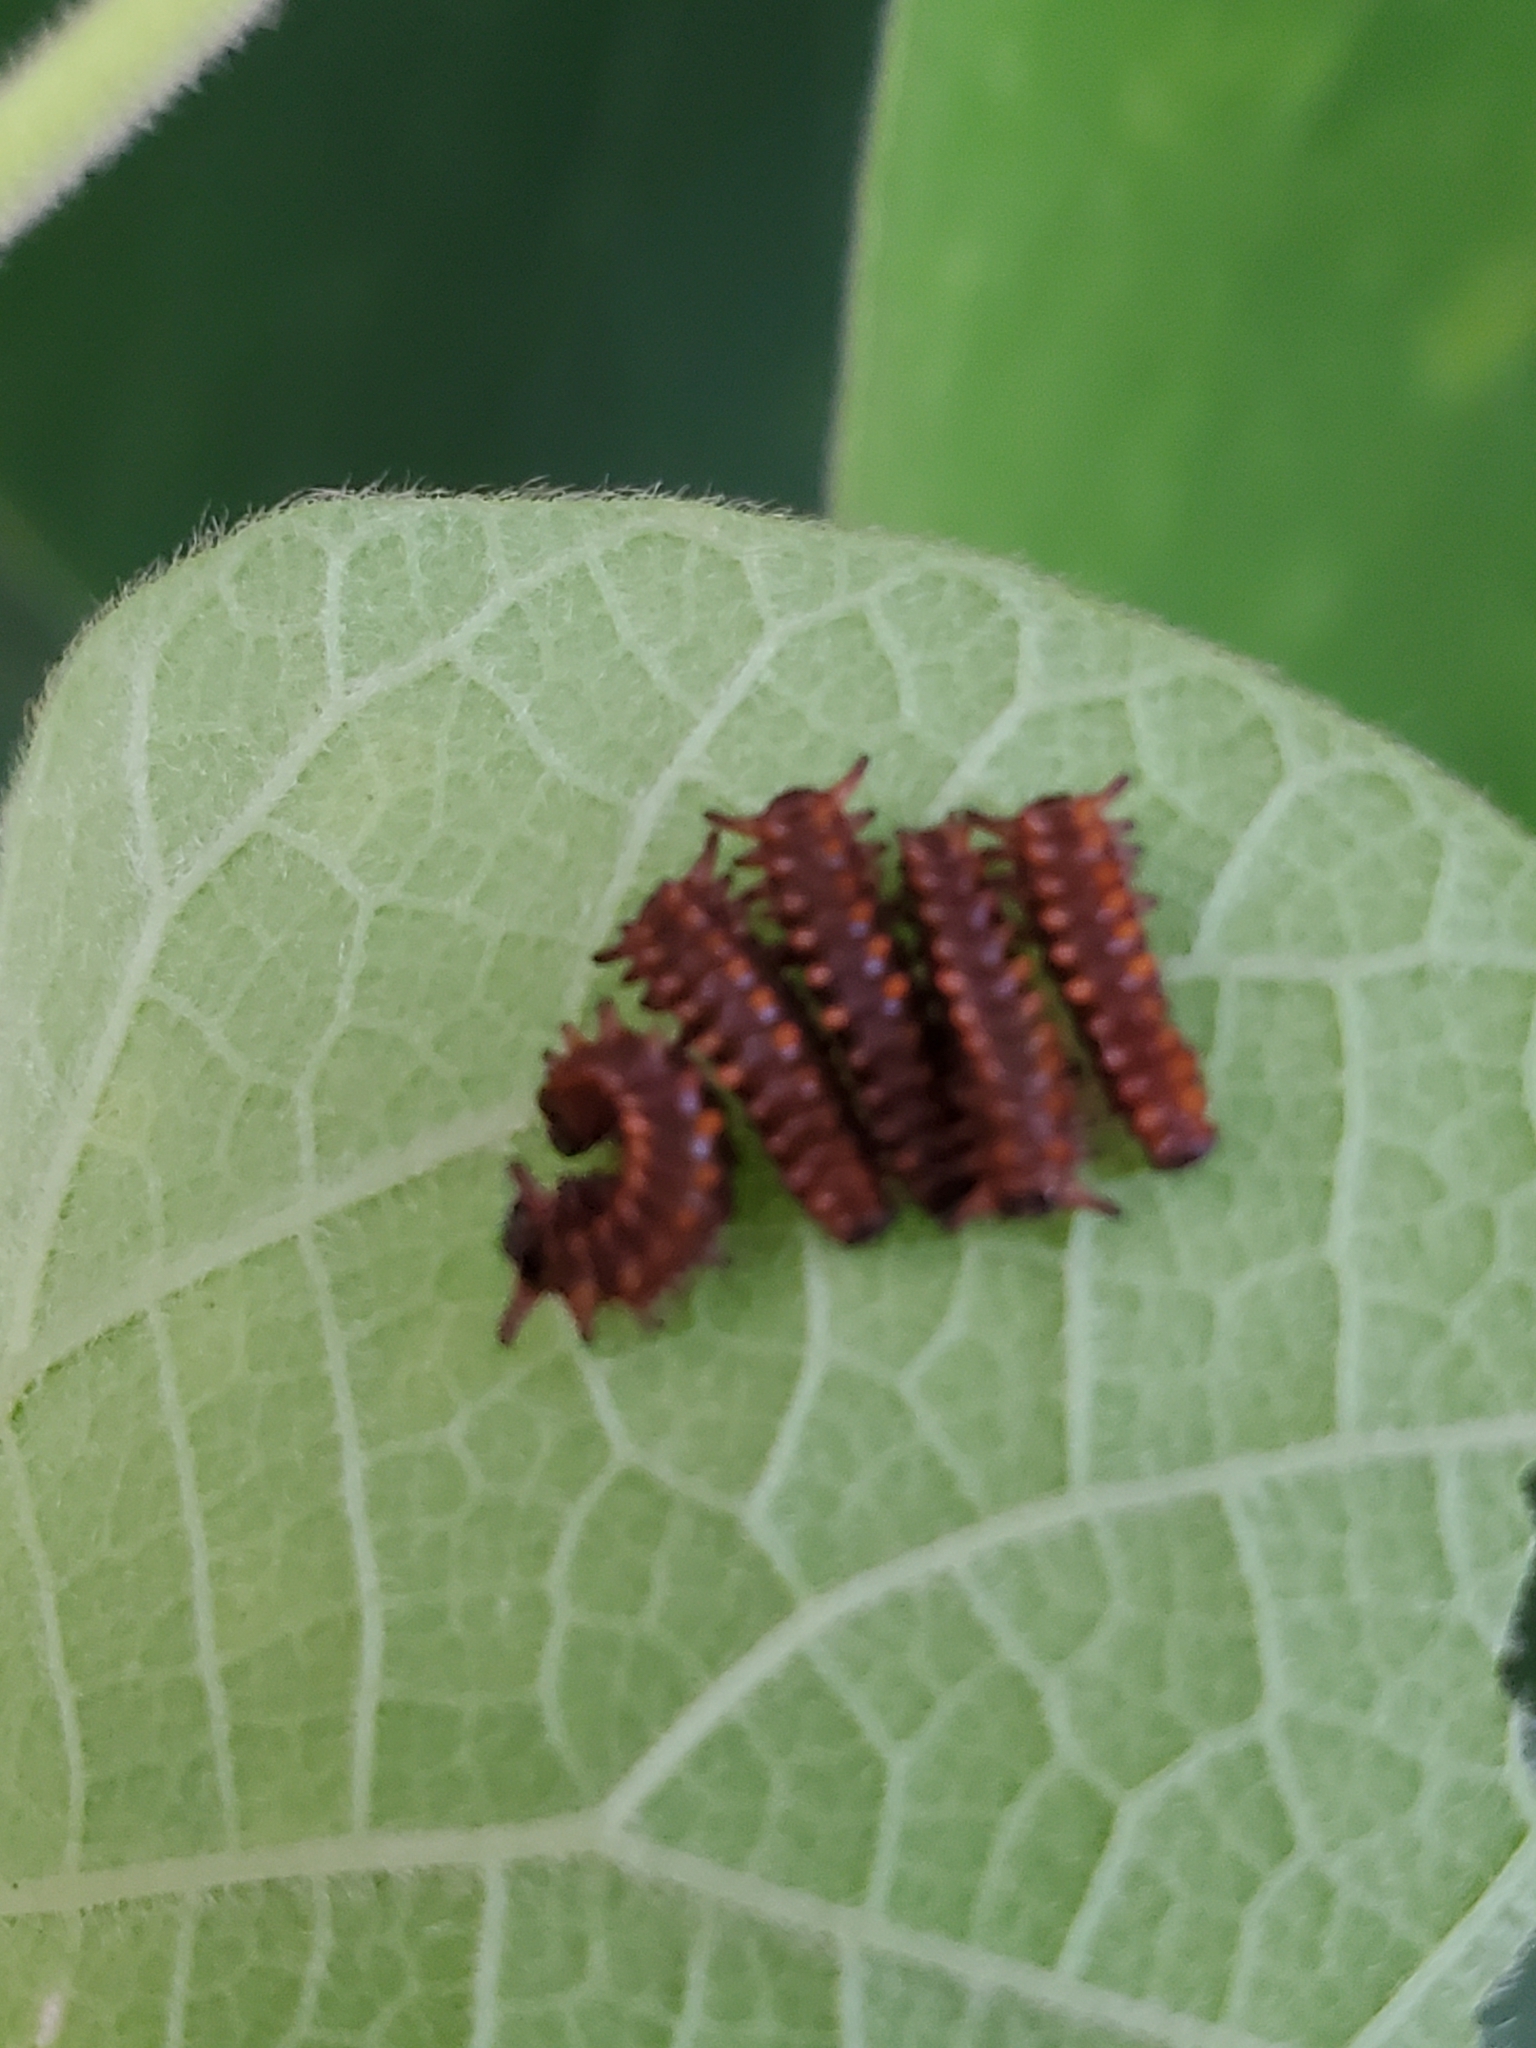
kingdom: Animalia
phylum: Arthropoda
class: Insecta
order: Lepidoptera
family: Papilionidae
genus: Battus
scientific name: Battus philenor
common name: Pipevine swallowtail
